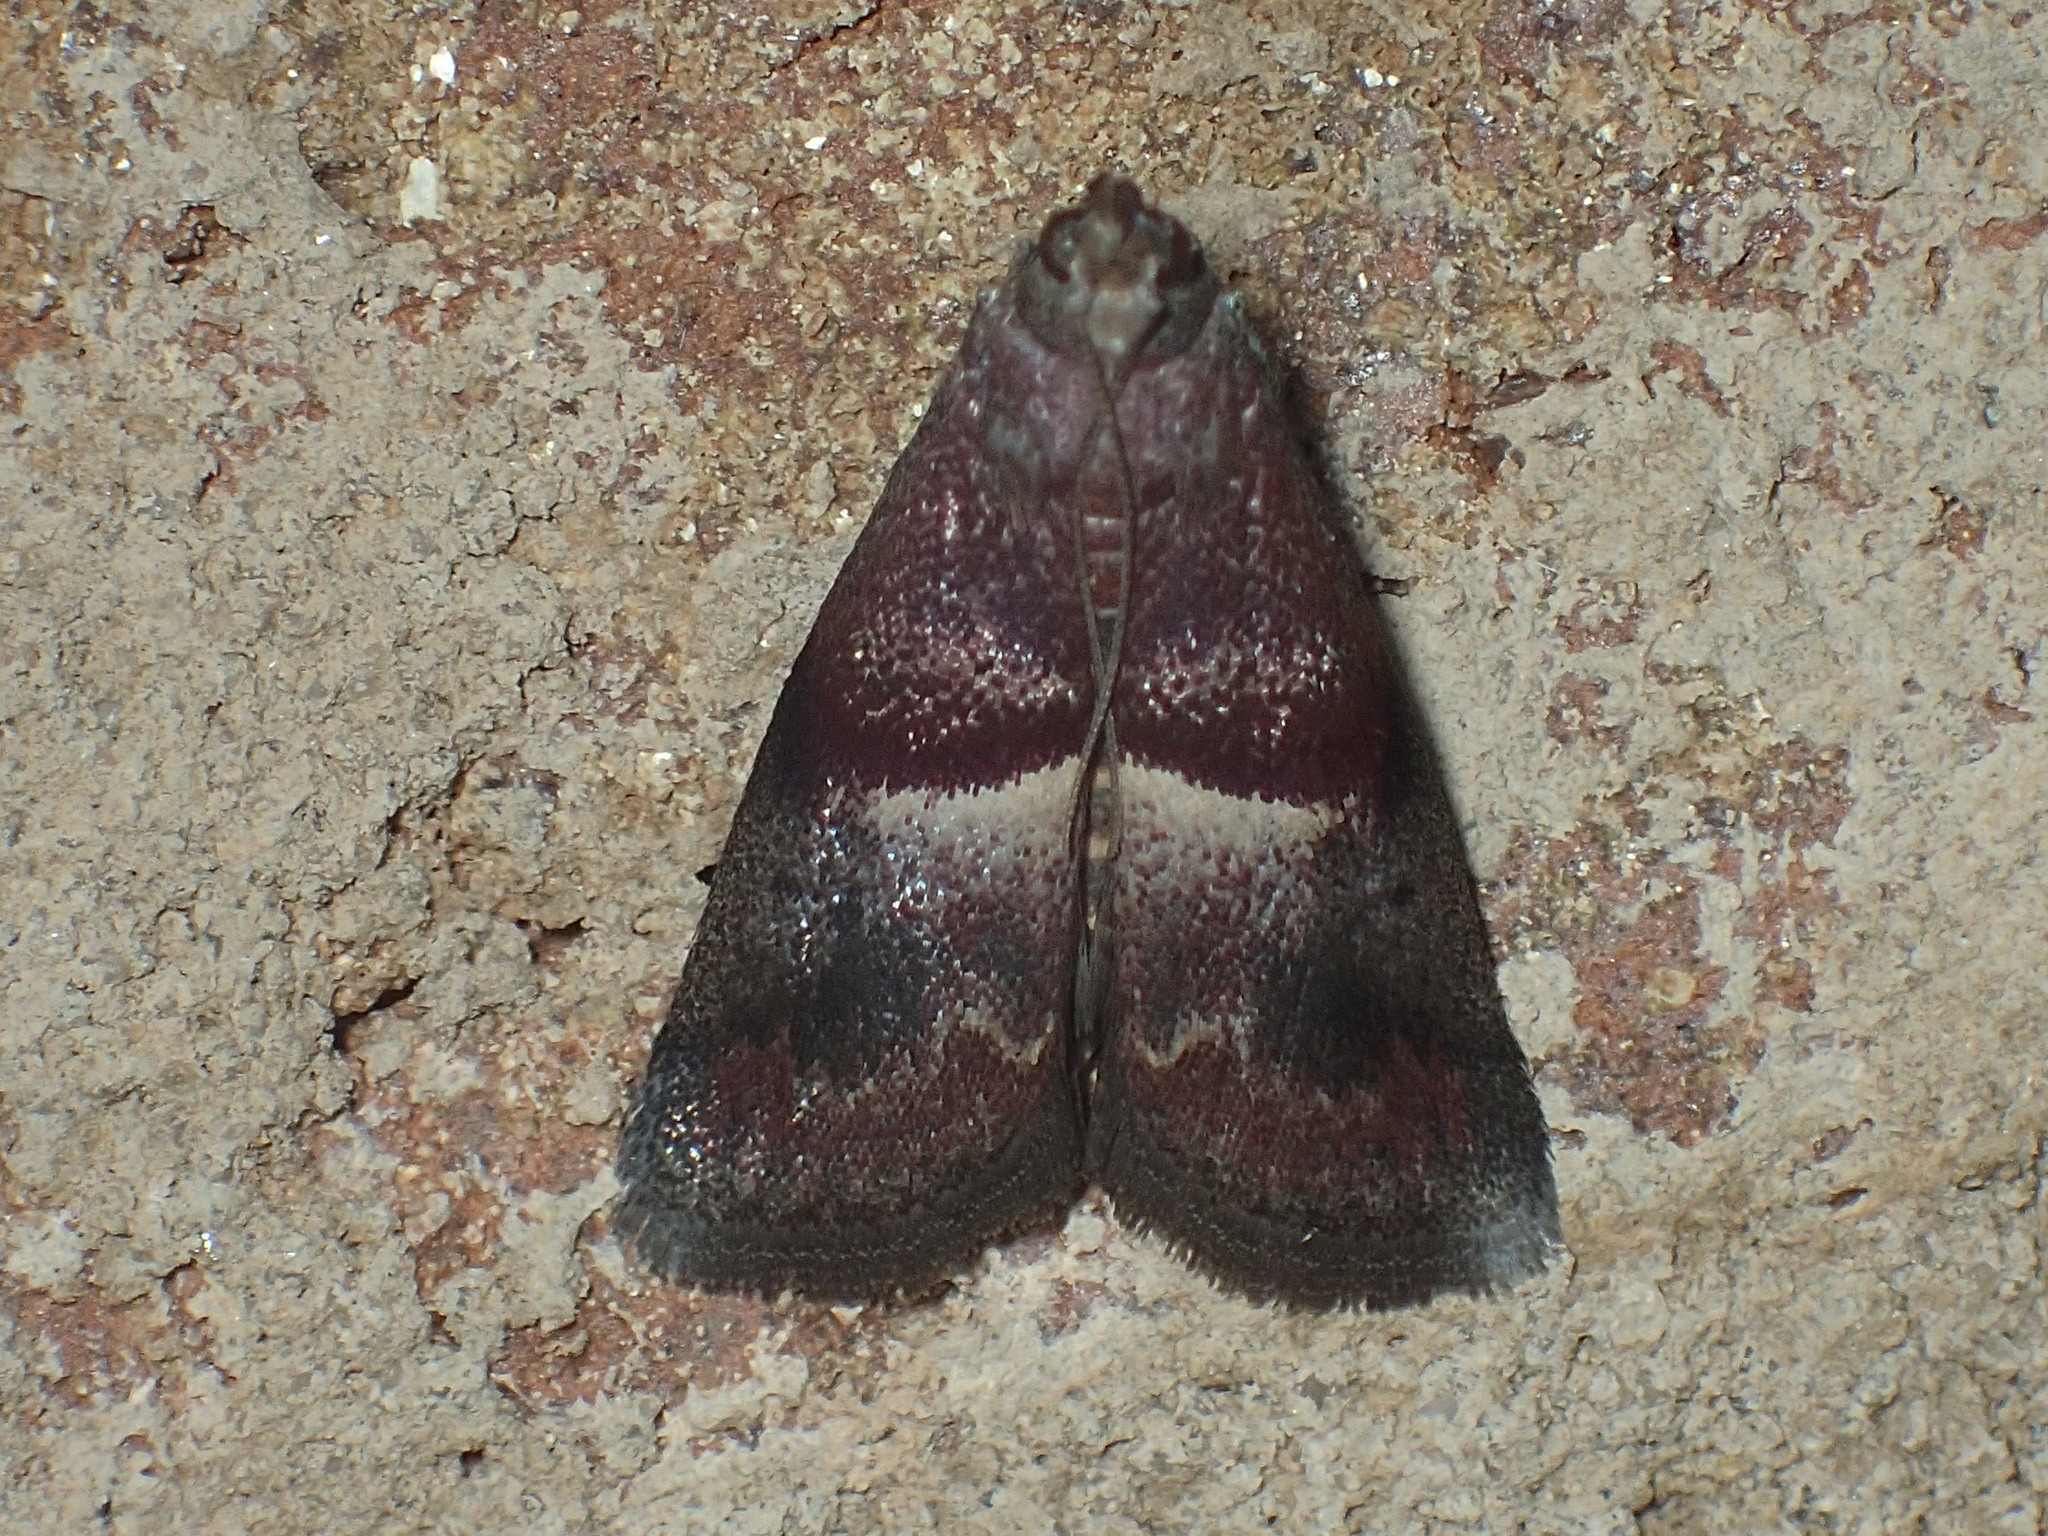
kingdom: Animalia
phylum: Arthropoda
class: Insecta
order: Lepidoptera
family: Pyralidae
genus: Acrobasis
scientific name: Acrobasis exsulella
